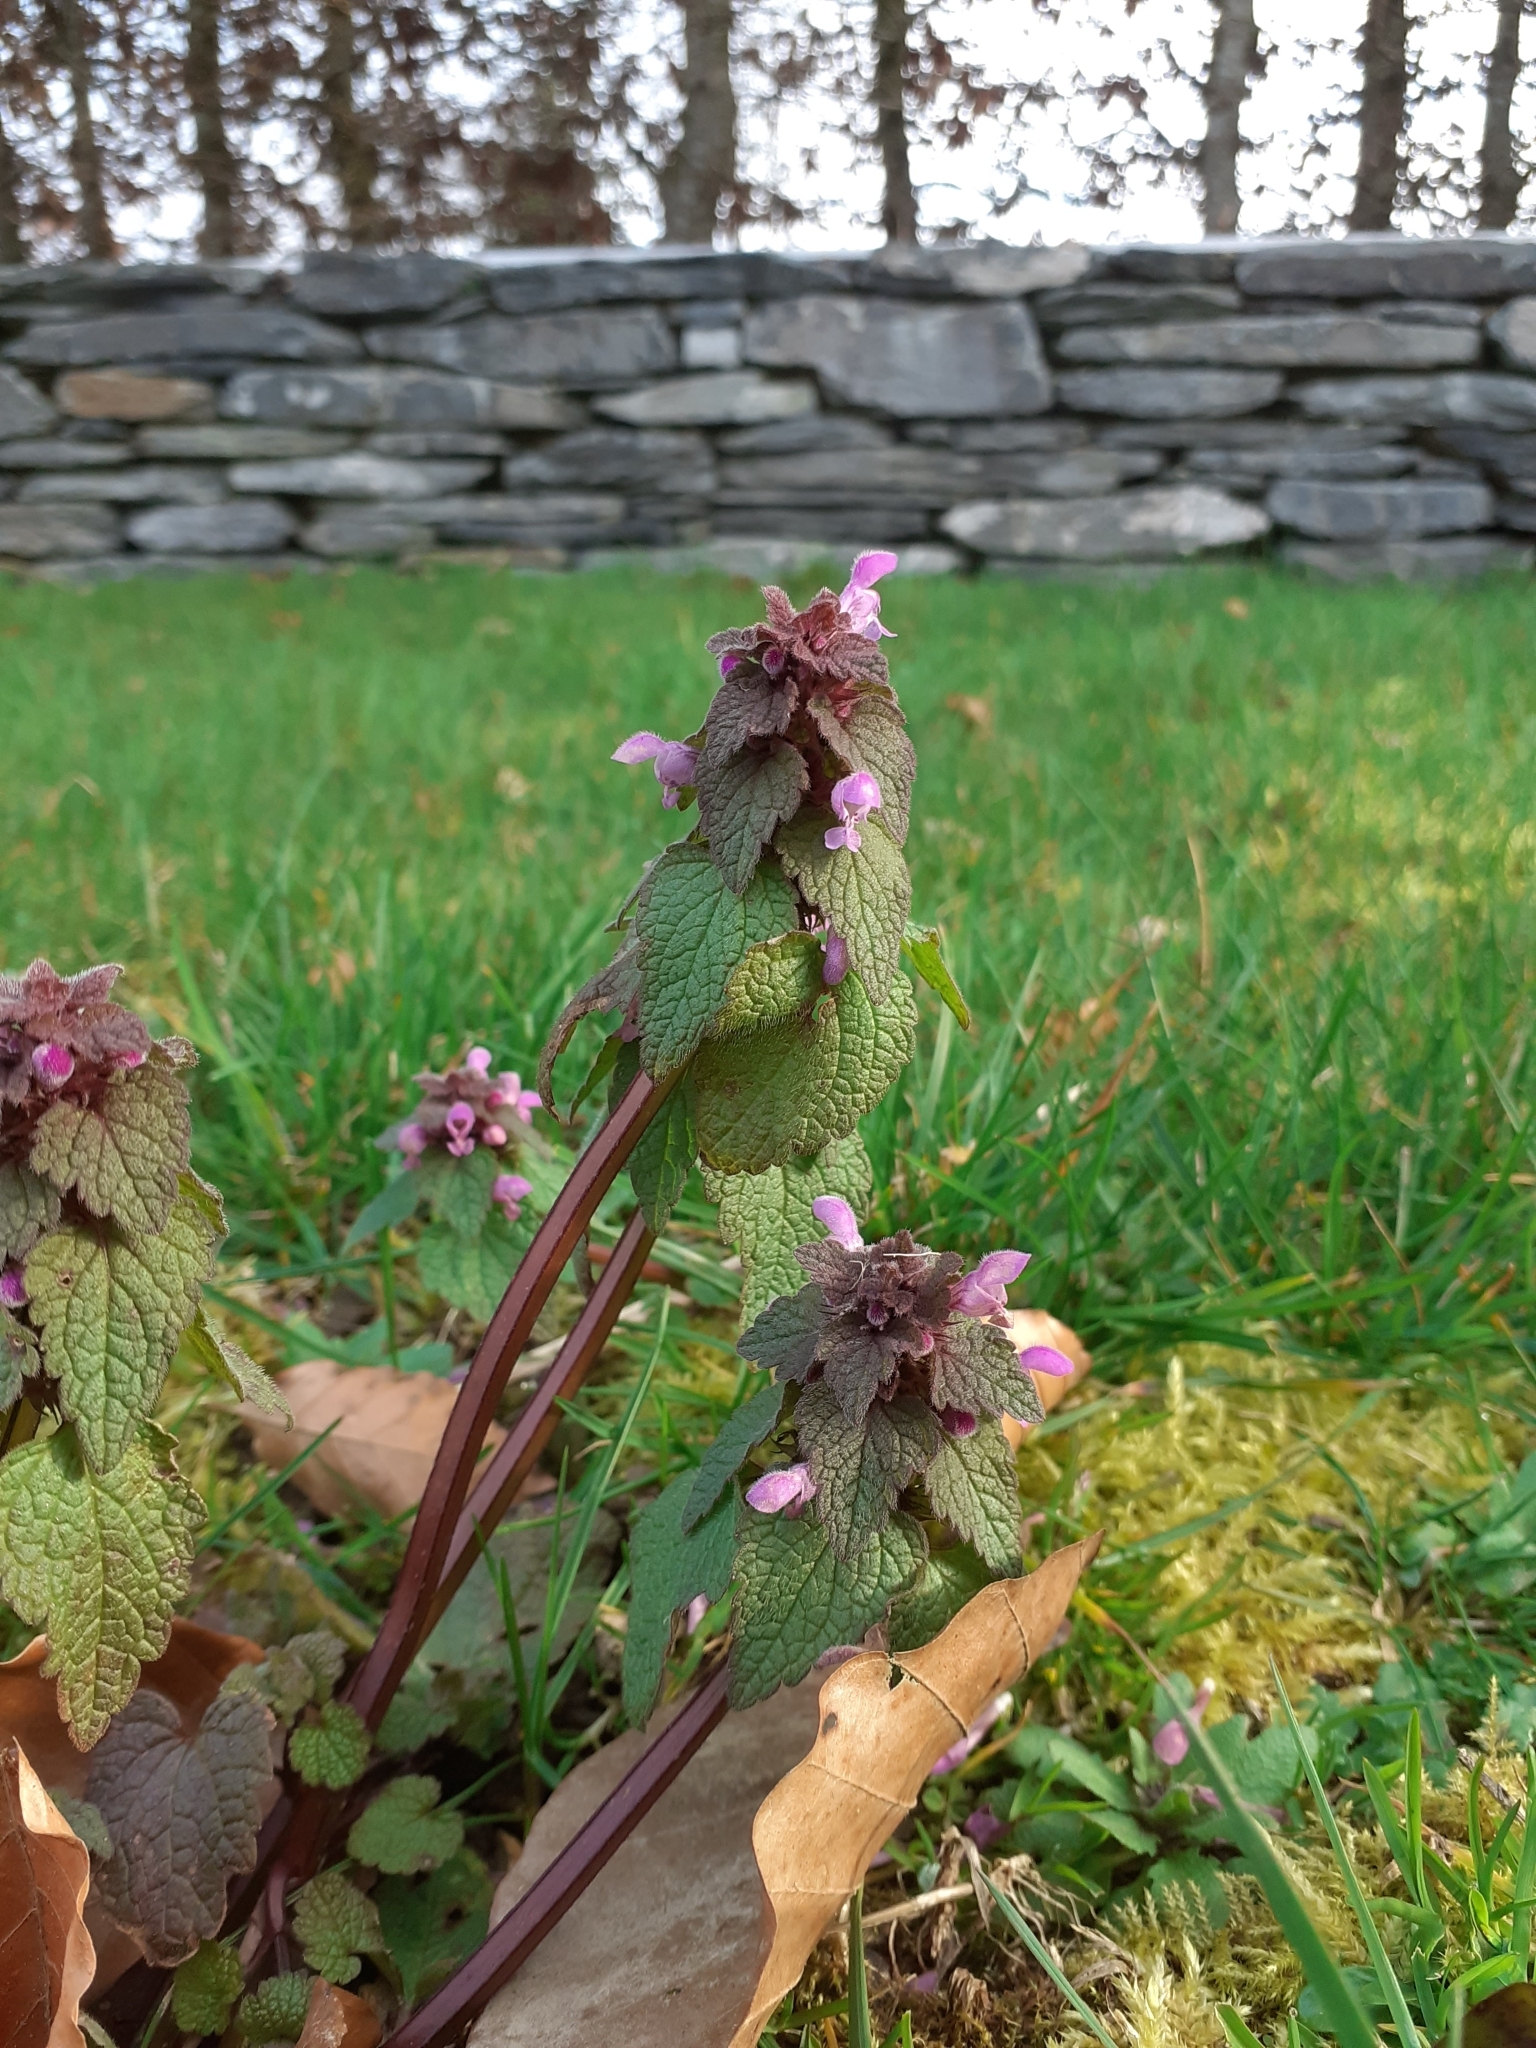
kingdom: Plantae
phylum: Tracheophyta
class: Magnoliopsida
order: Lamiales
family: Lamiaceae
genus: Lamium
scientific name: Lamium purpureum
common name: Red dead-nettle
